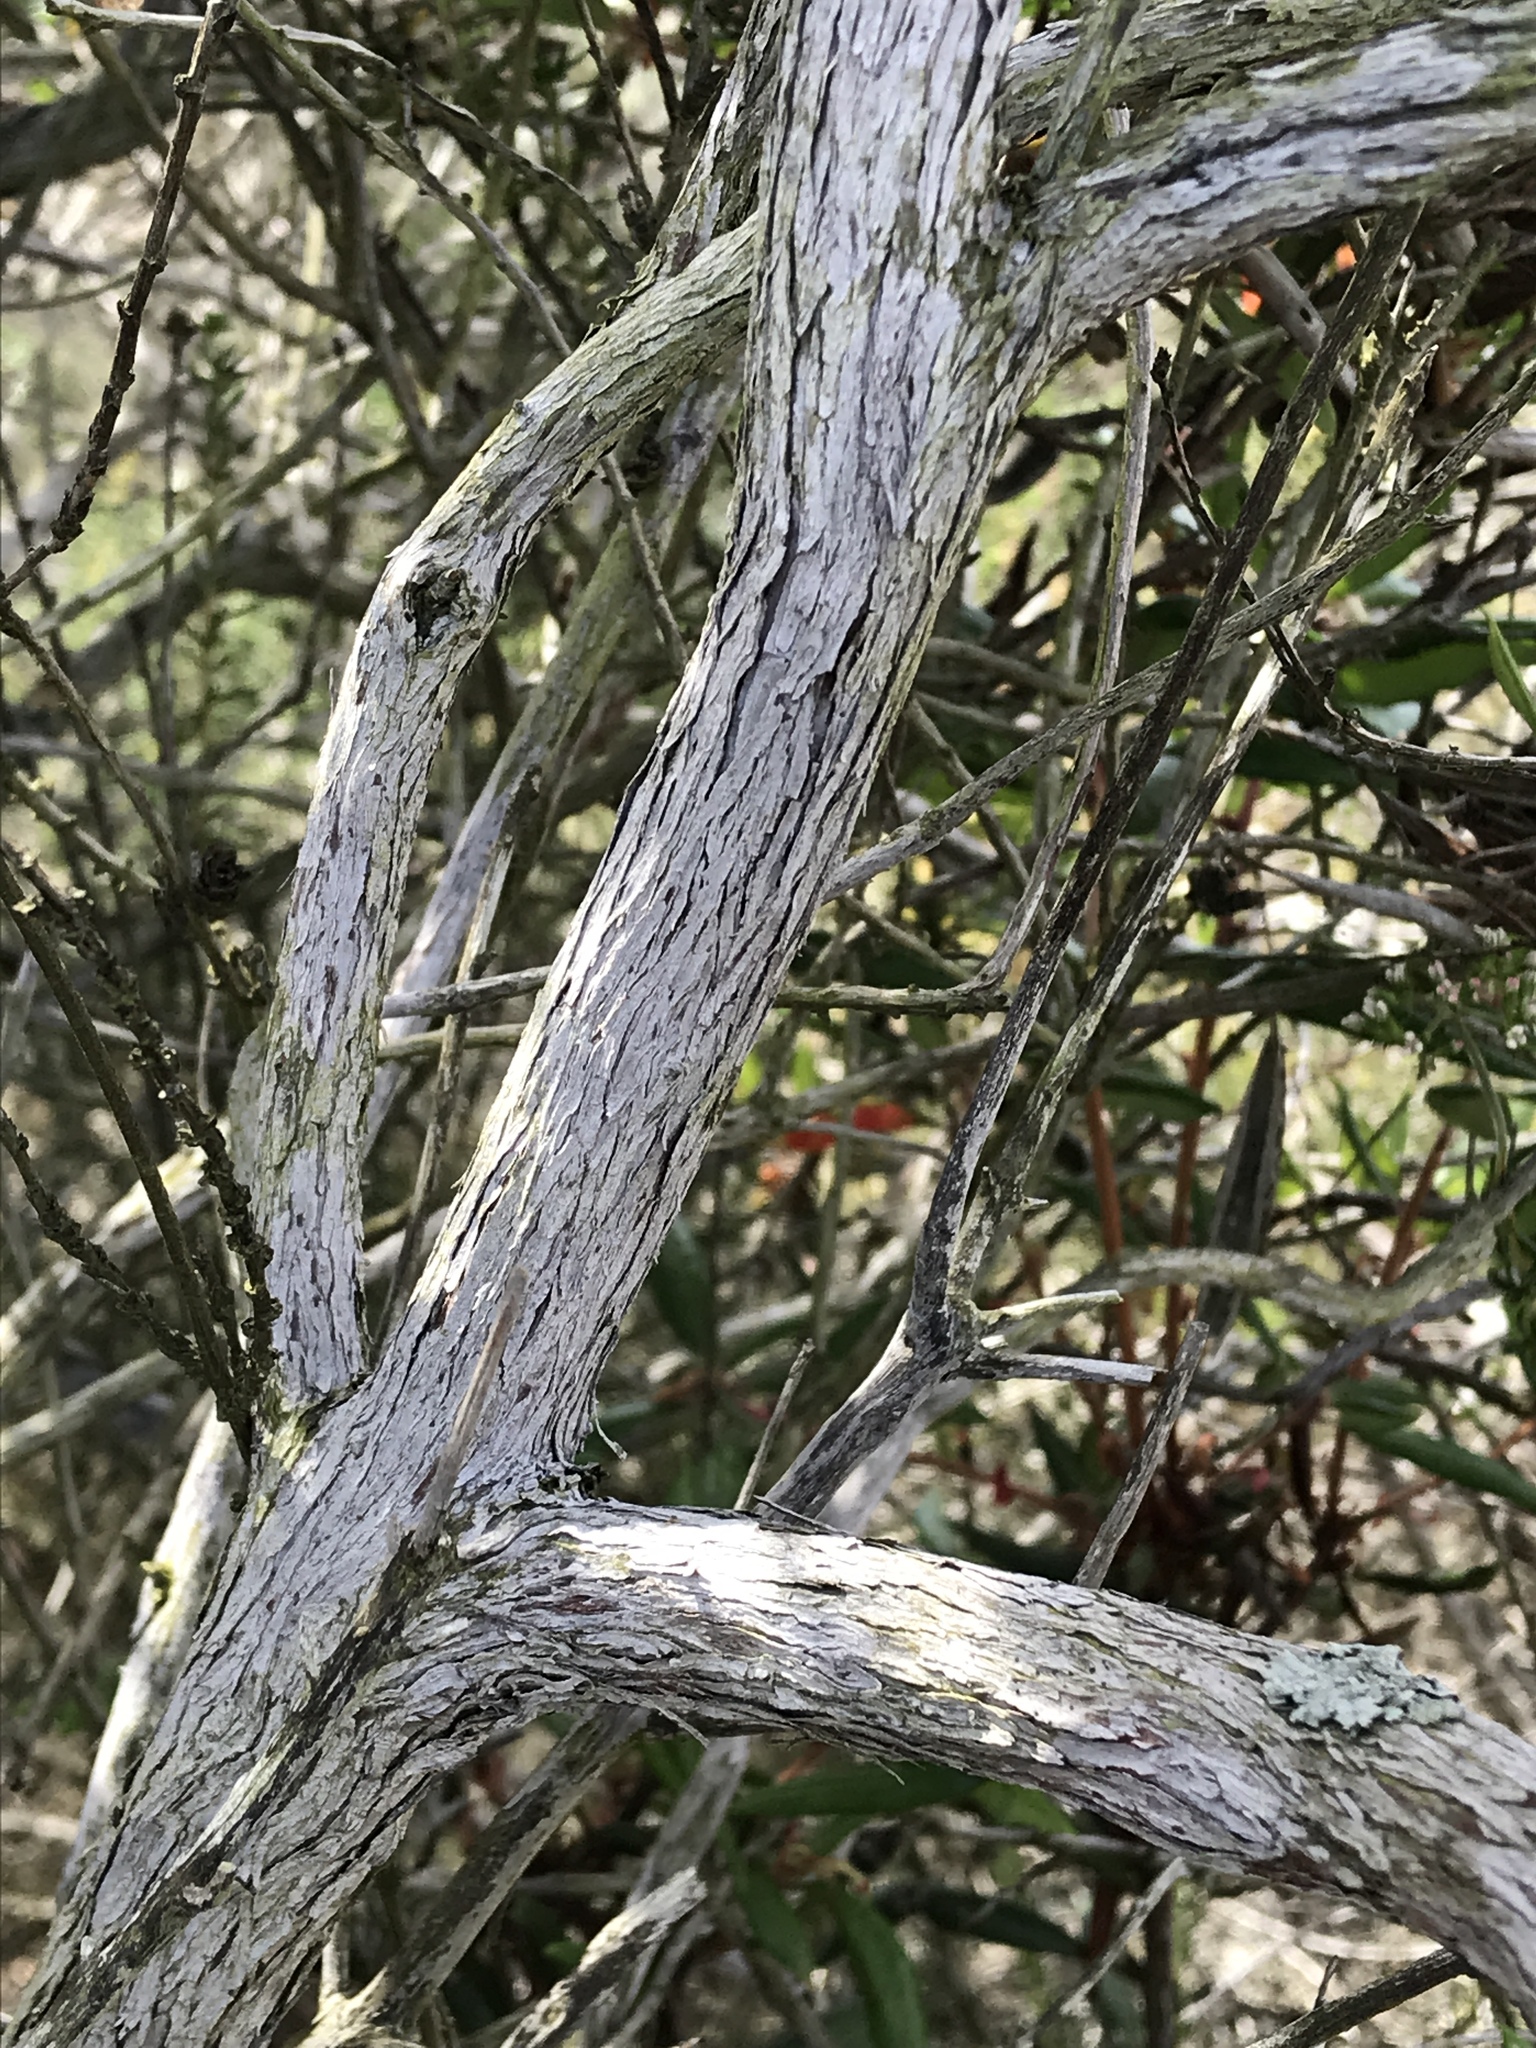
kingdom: Plantae
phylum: Tracheophyta
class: Magnoliopsida
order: Ericales
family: Ericaceae
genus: Comarostaphylis
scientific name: Comarostaphylis diversifolia
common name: Summer-holly
